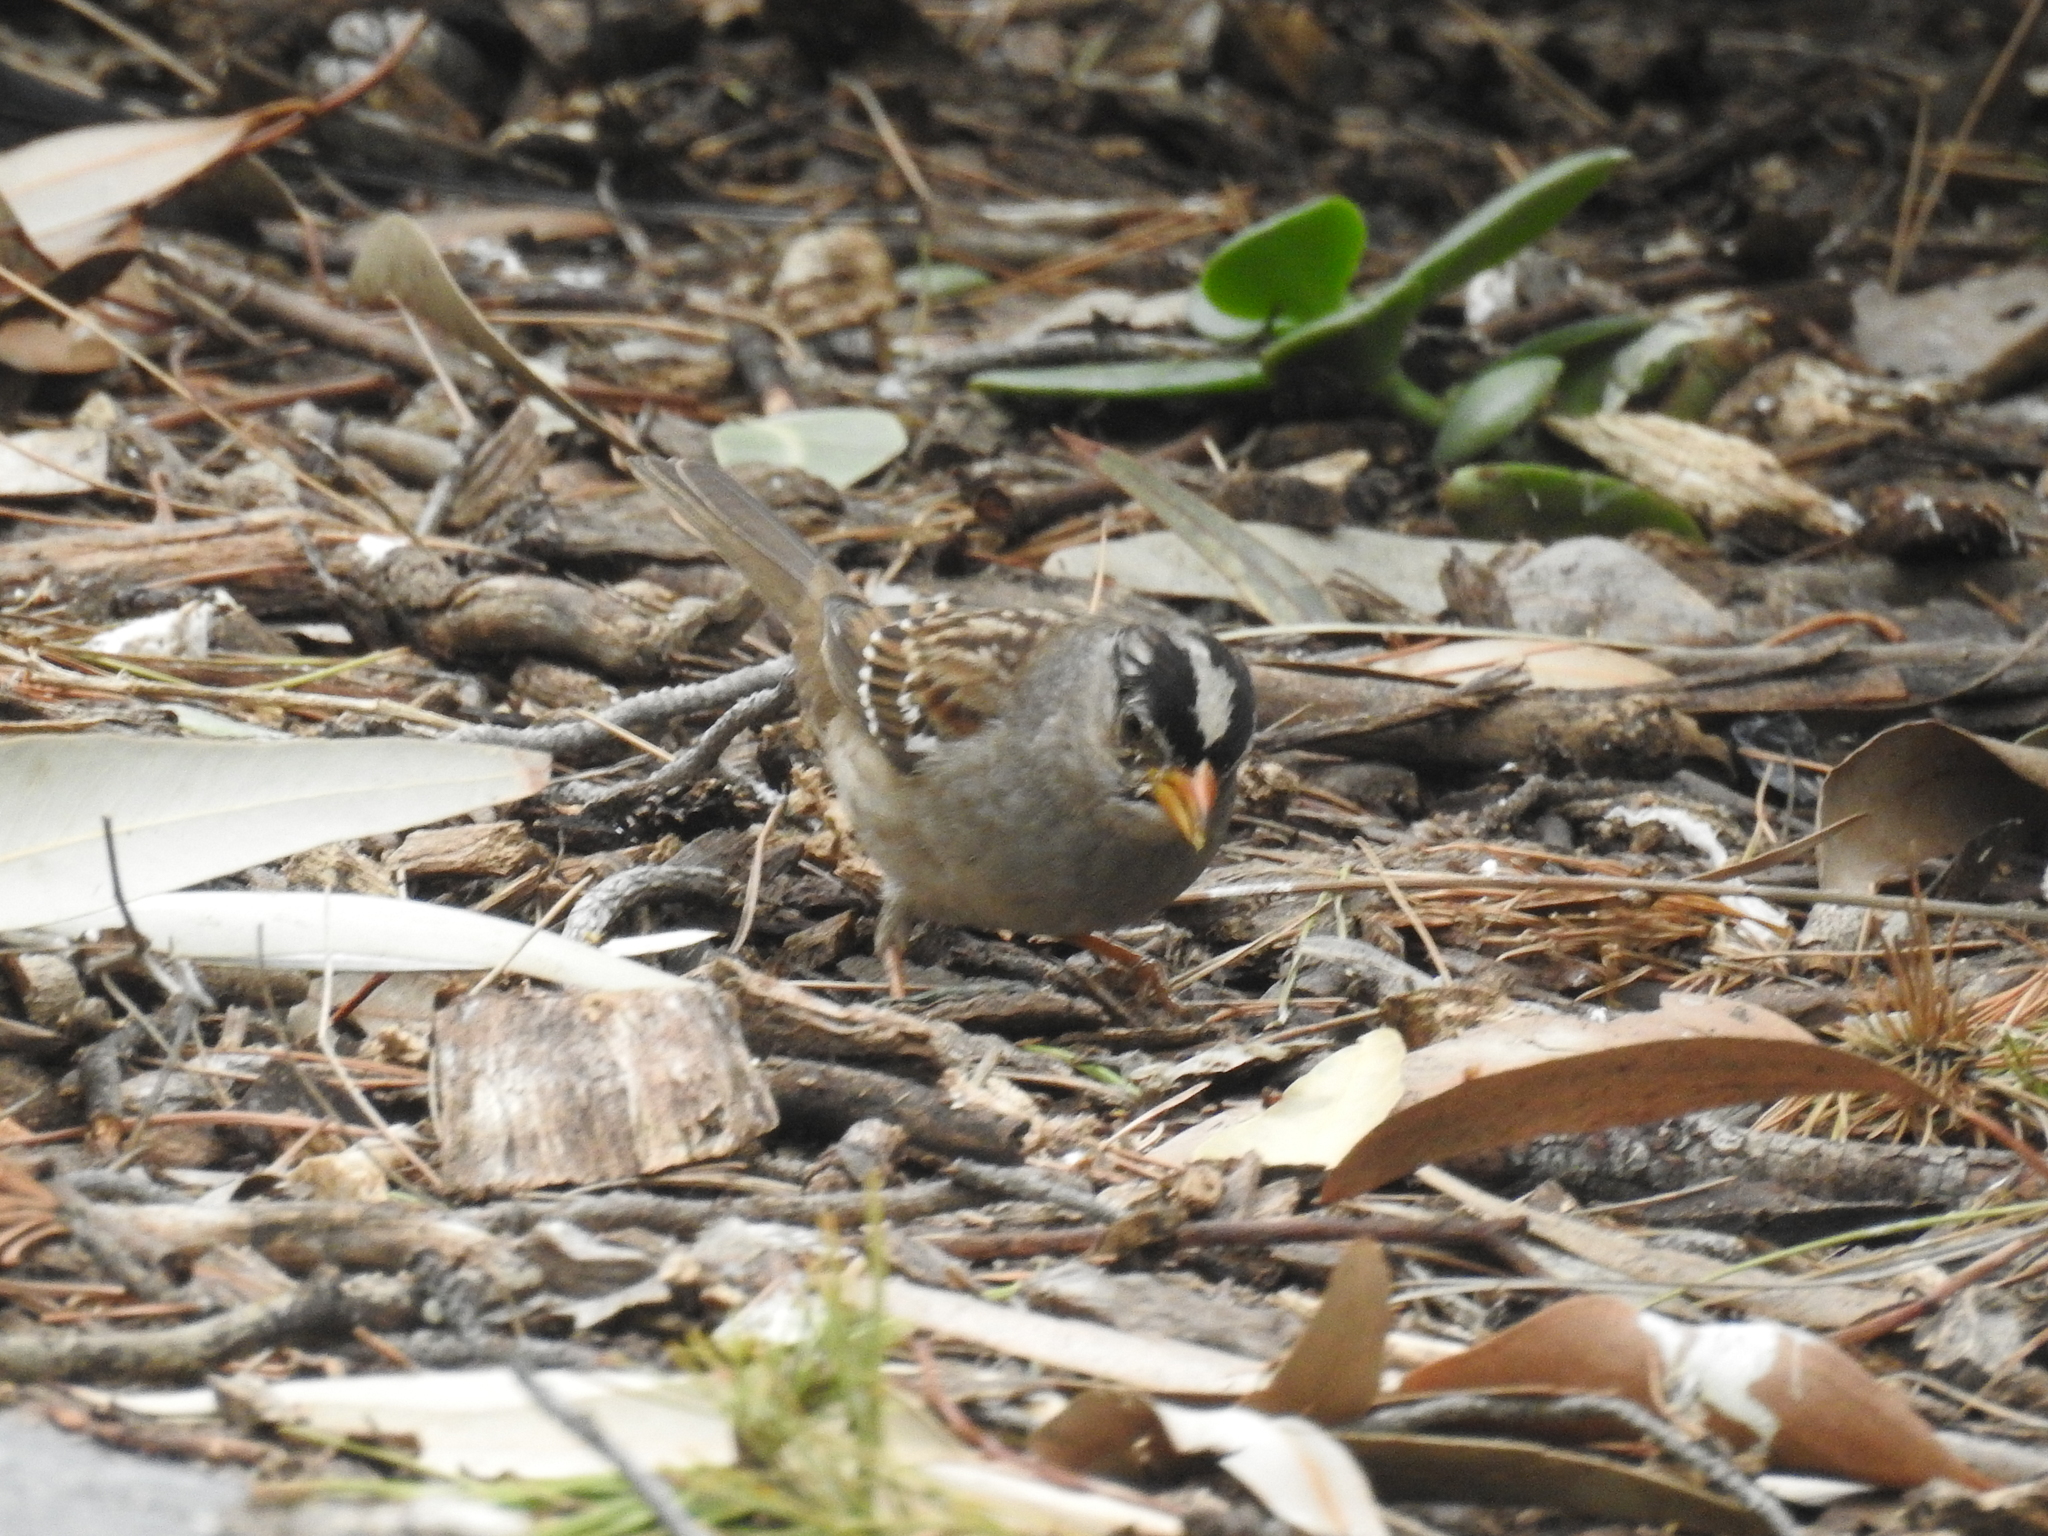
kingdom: Animalia
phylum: Chordata
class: Aves
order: Passeriformes
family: Passerellidae
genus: Zonotrichia
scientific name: Zonotrichia leucophrys
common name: White-crowned sparrow
